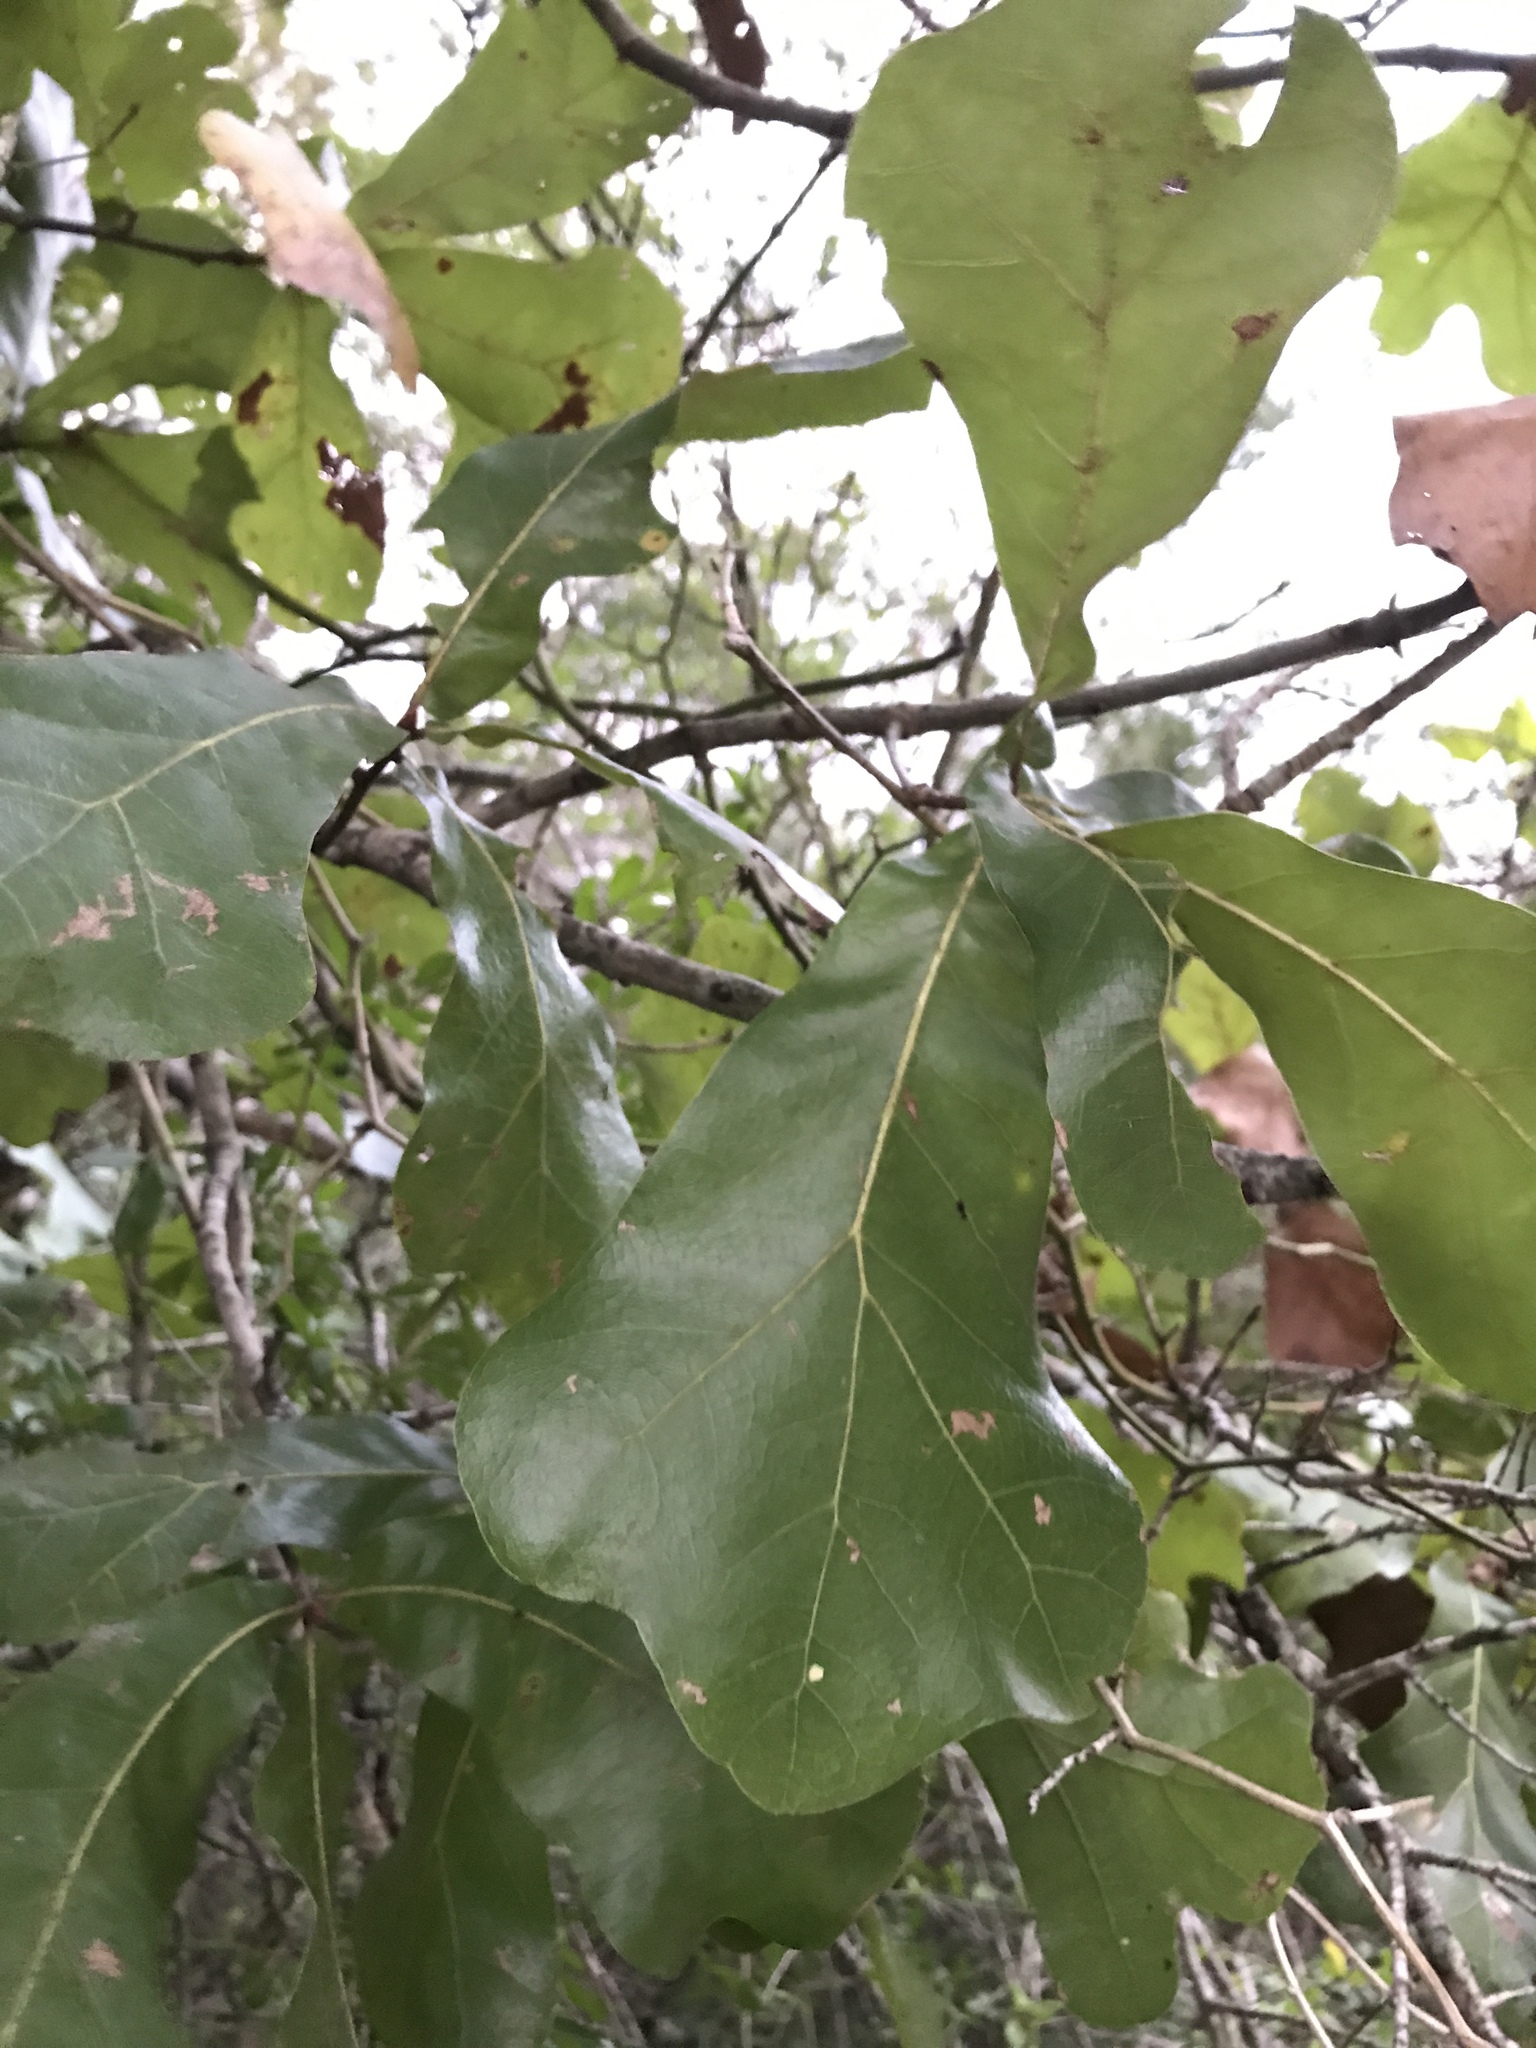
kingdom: Plantae
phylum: Tracheophyta
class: Magnoliopsida
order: Fagales
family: Fagaceae
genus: Quercus
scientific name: Quercus marilandica
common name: Blackjack oak
